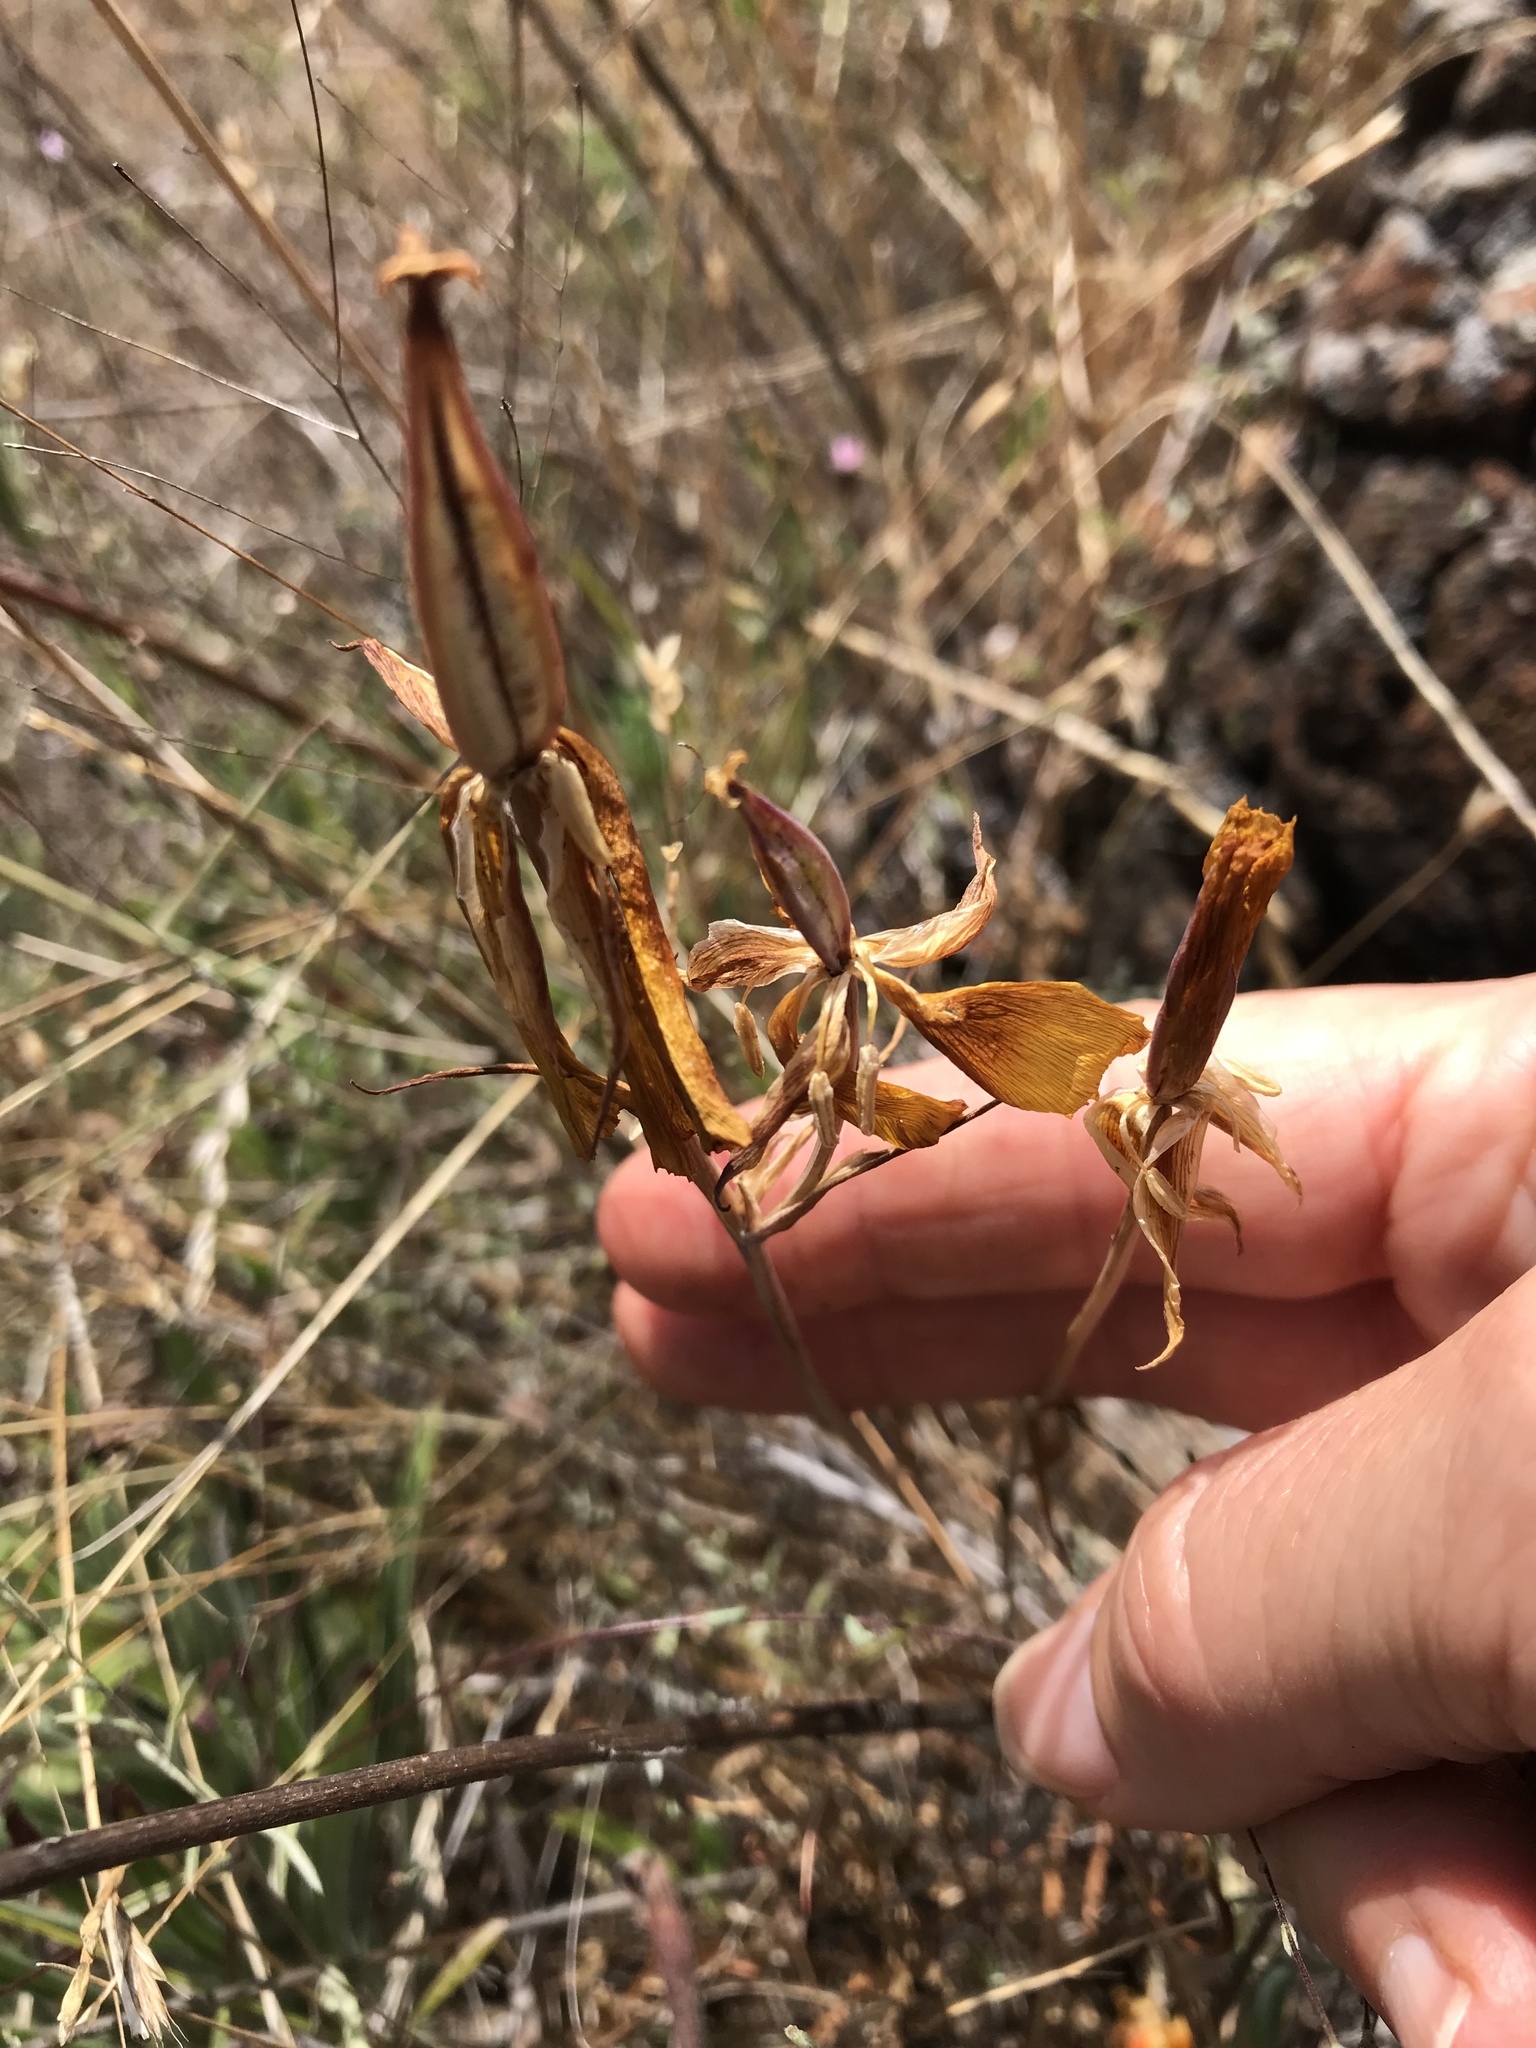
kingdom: Plantae
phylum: Tracheophyta
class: Liliopsida
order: Liliales
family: Liliaceae
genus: Calochortus
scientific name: Calochortus luteus
